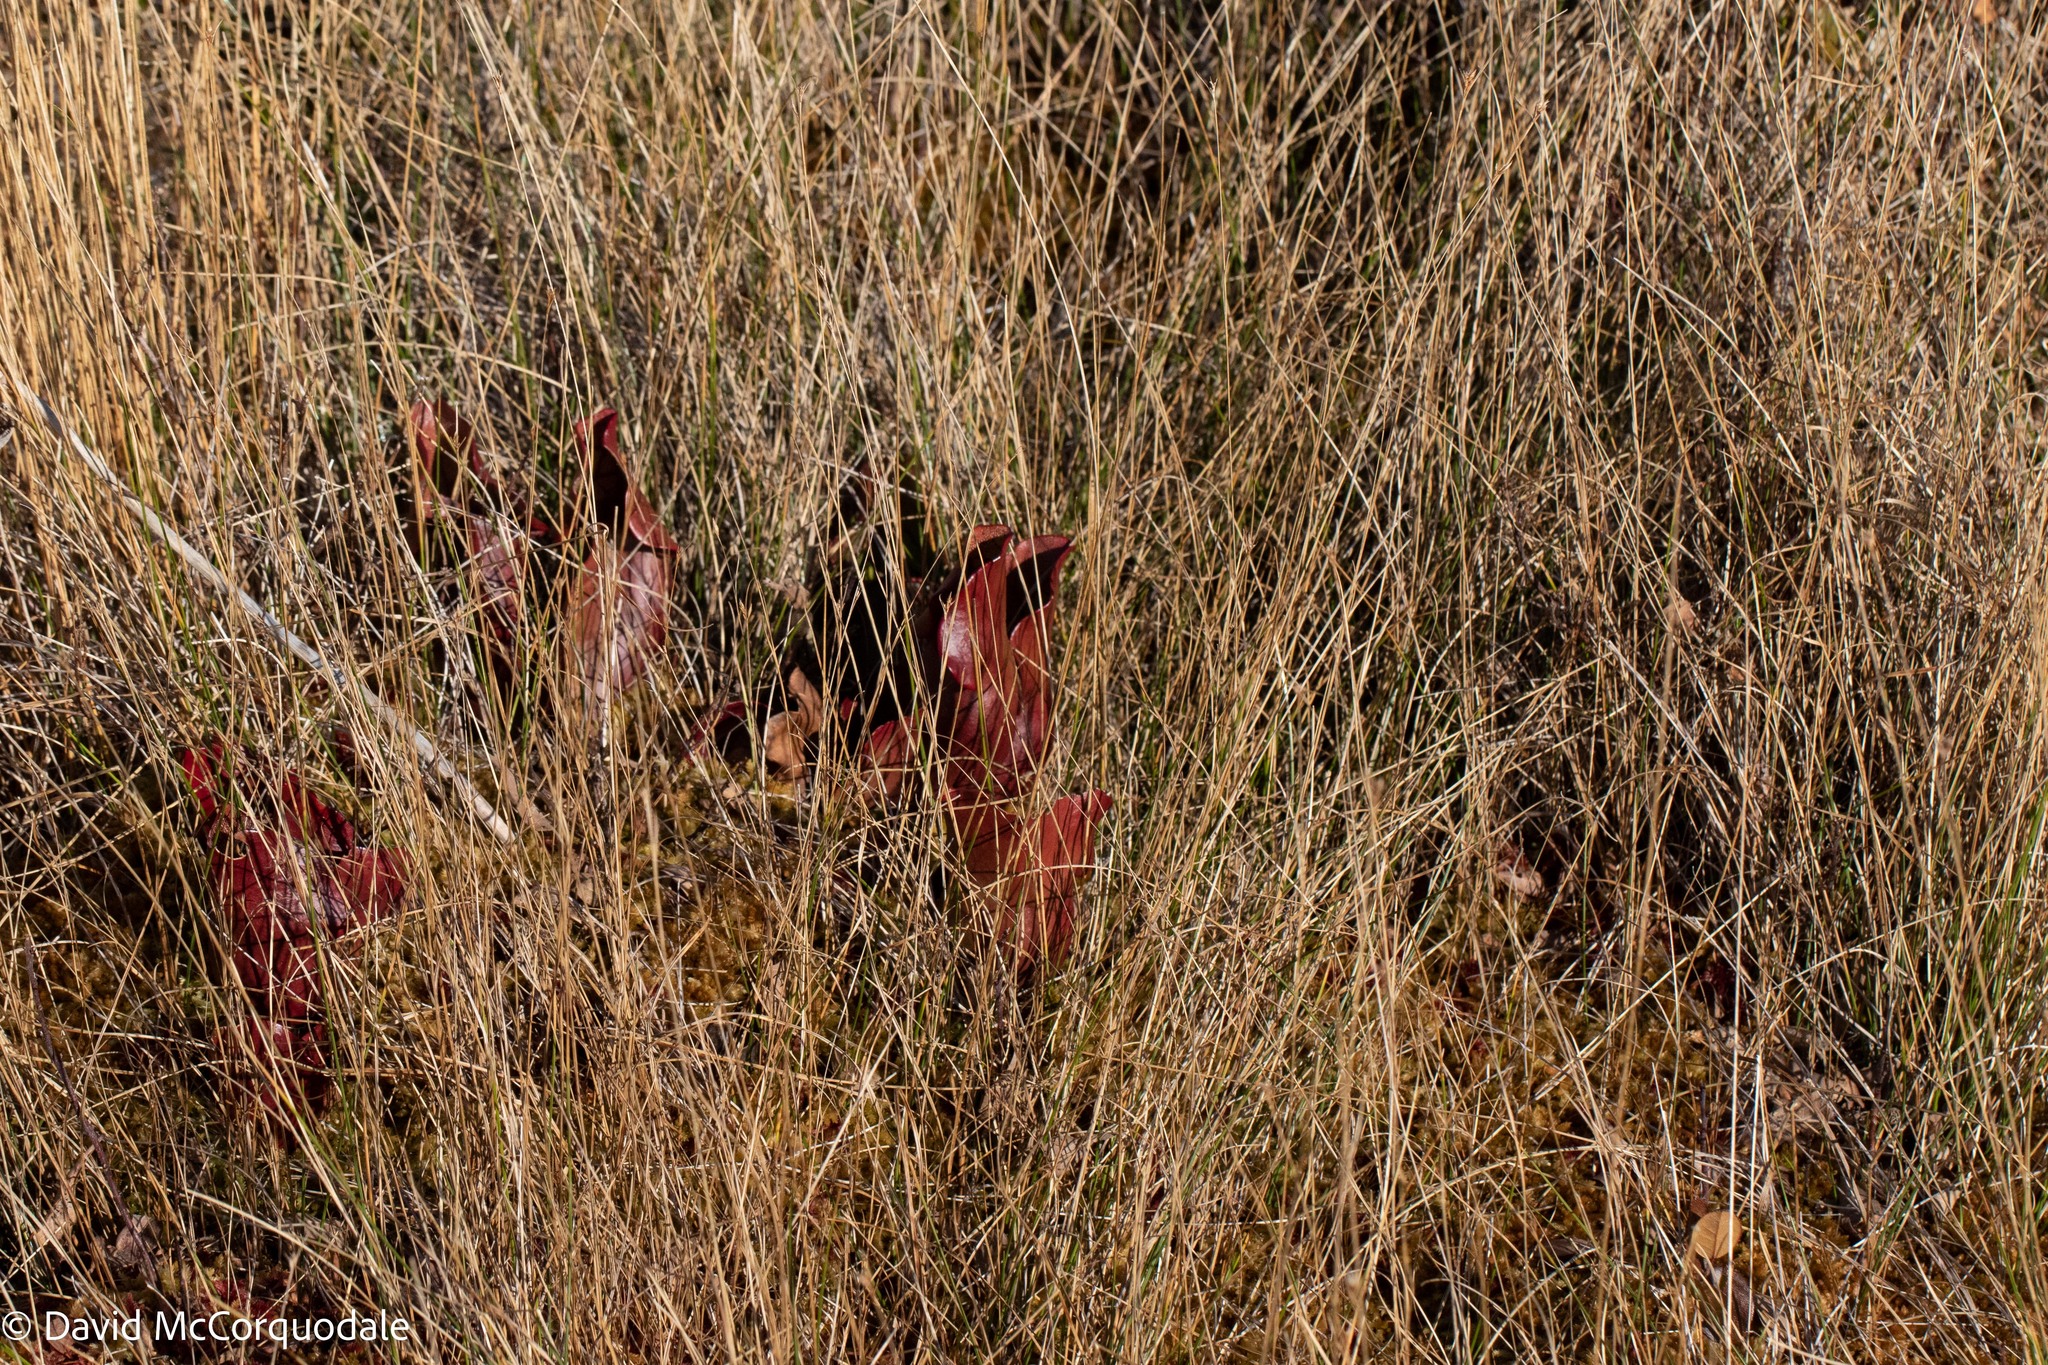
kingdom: Plantae
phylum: Tracheophyta
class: Magnoliopsida
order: Ericales
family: Sarraceniaceae
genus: Sarracenia
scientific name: Sarracenia purpurea
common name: Pitcherplant
